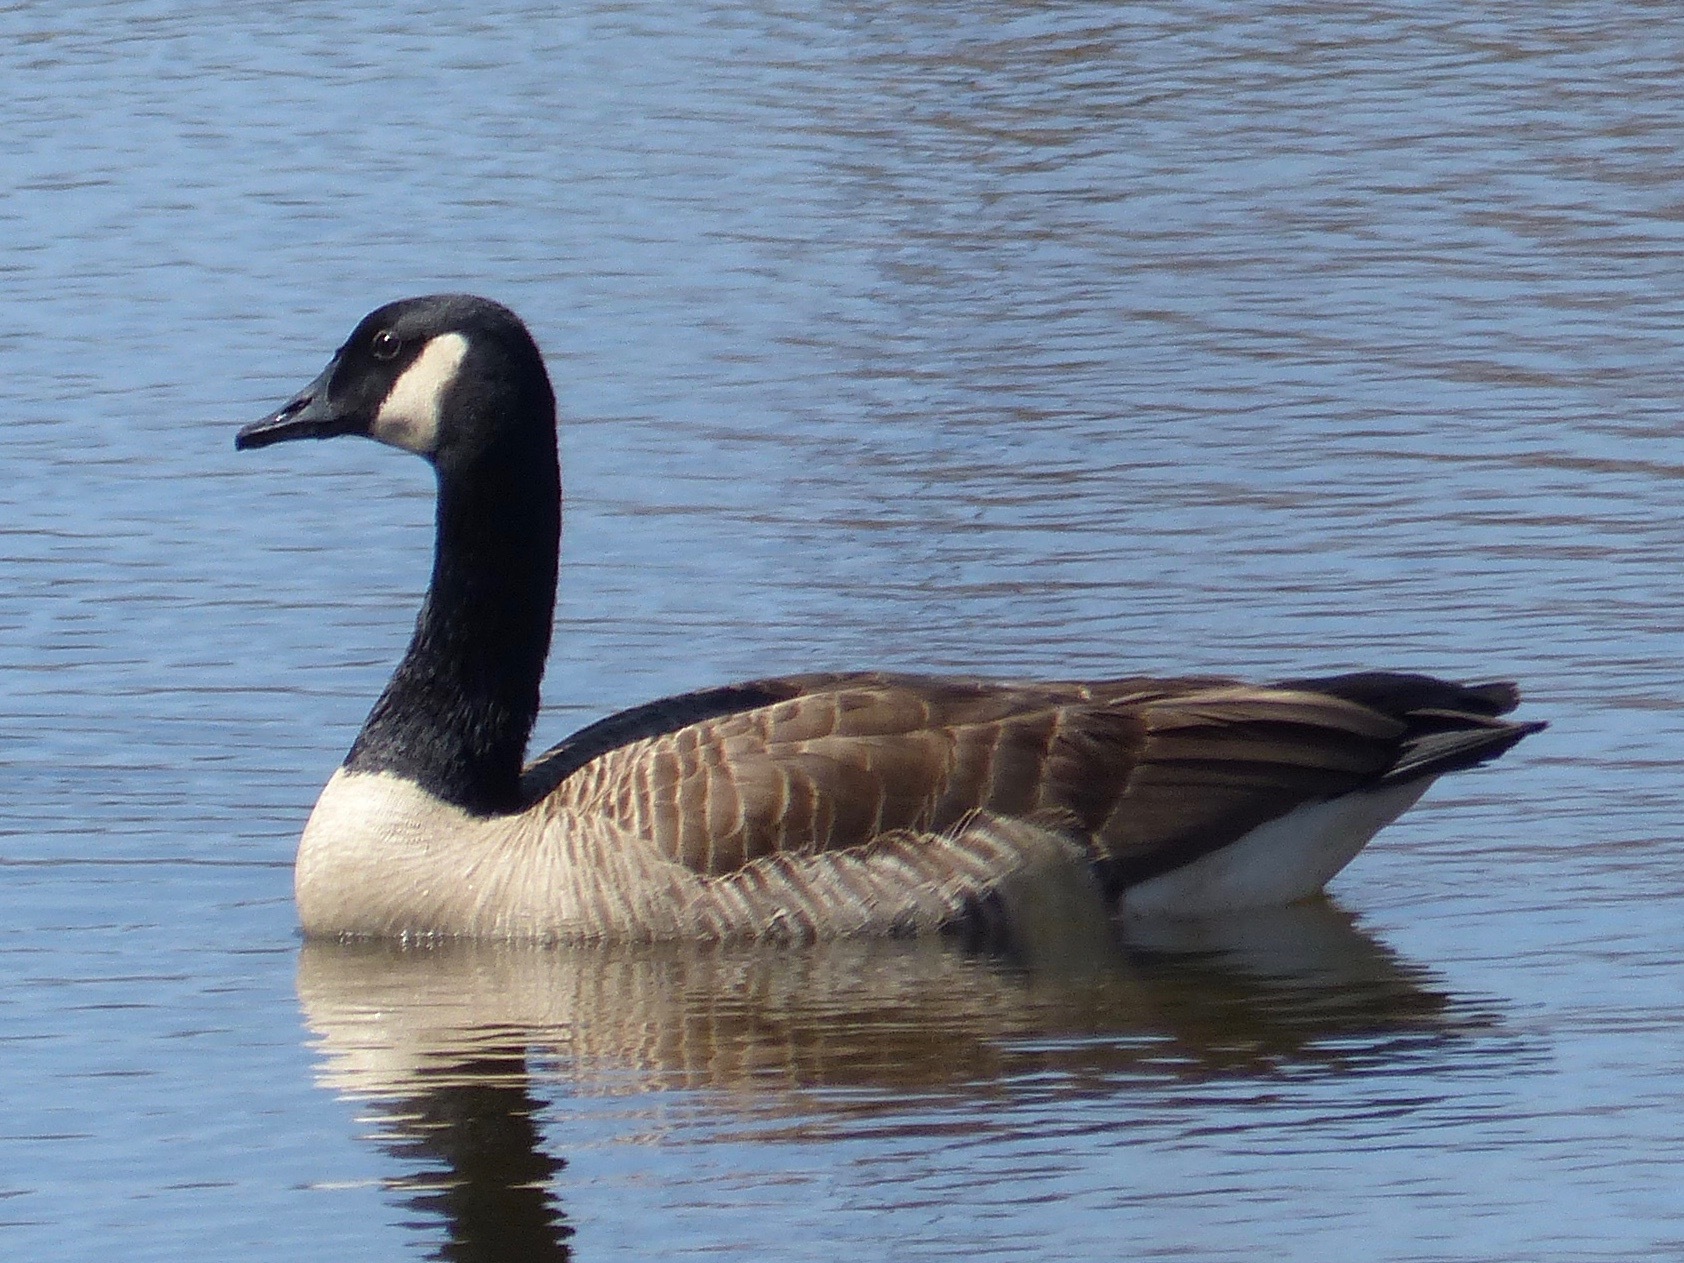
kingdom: Animalia
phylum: Chordata
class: Aves
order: Anseriformes
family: Anatidae
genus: Branta
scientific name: Branta canadensis
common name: Canada goose
